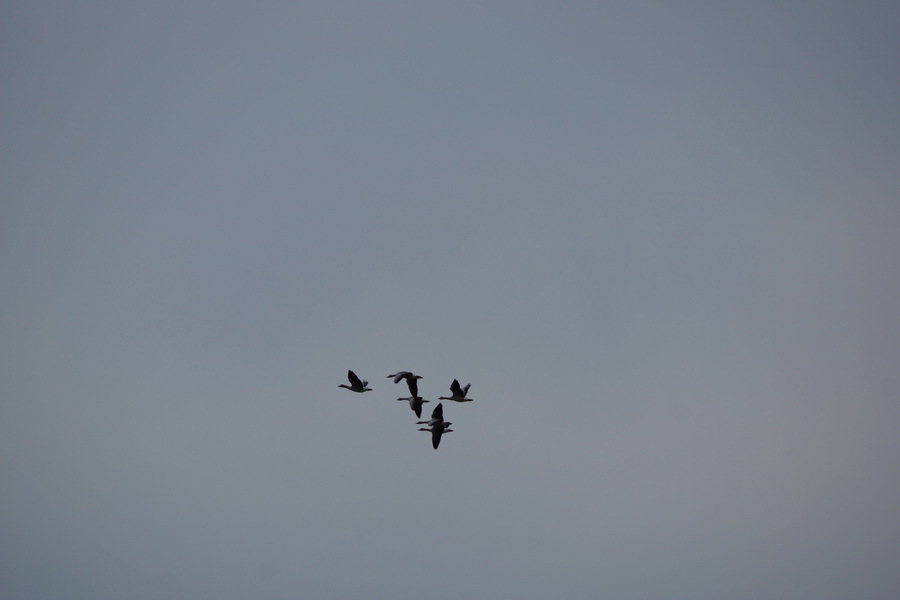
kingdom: Animalia
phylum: Chordata
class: Aves
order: Anseriformes
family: Anatidae
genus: Anser
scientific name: Anser anser
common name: Greylag goose
